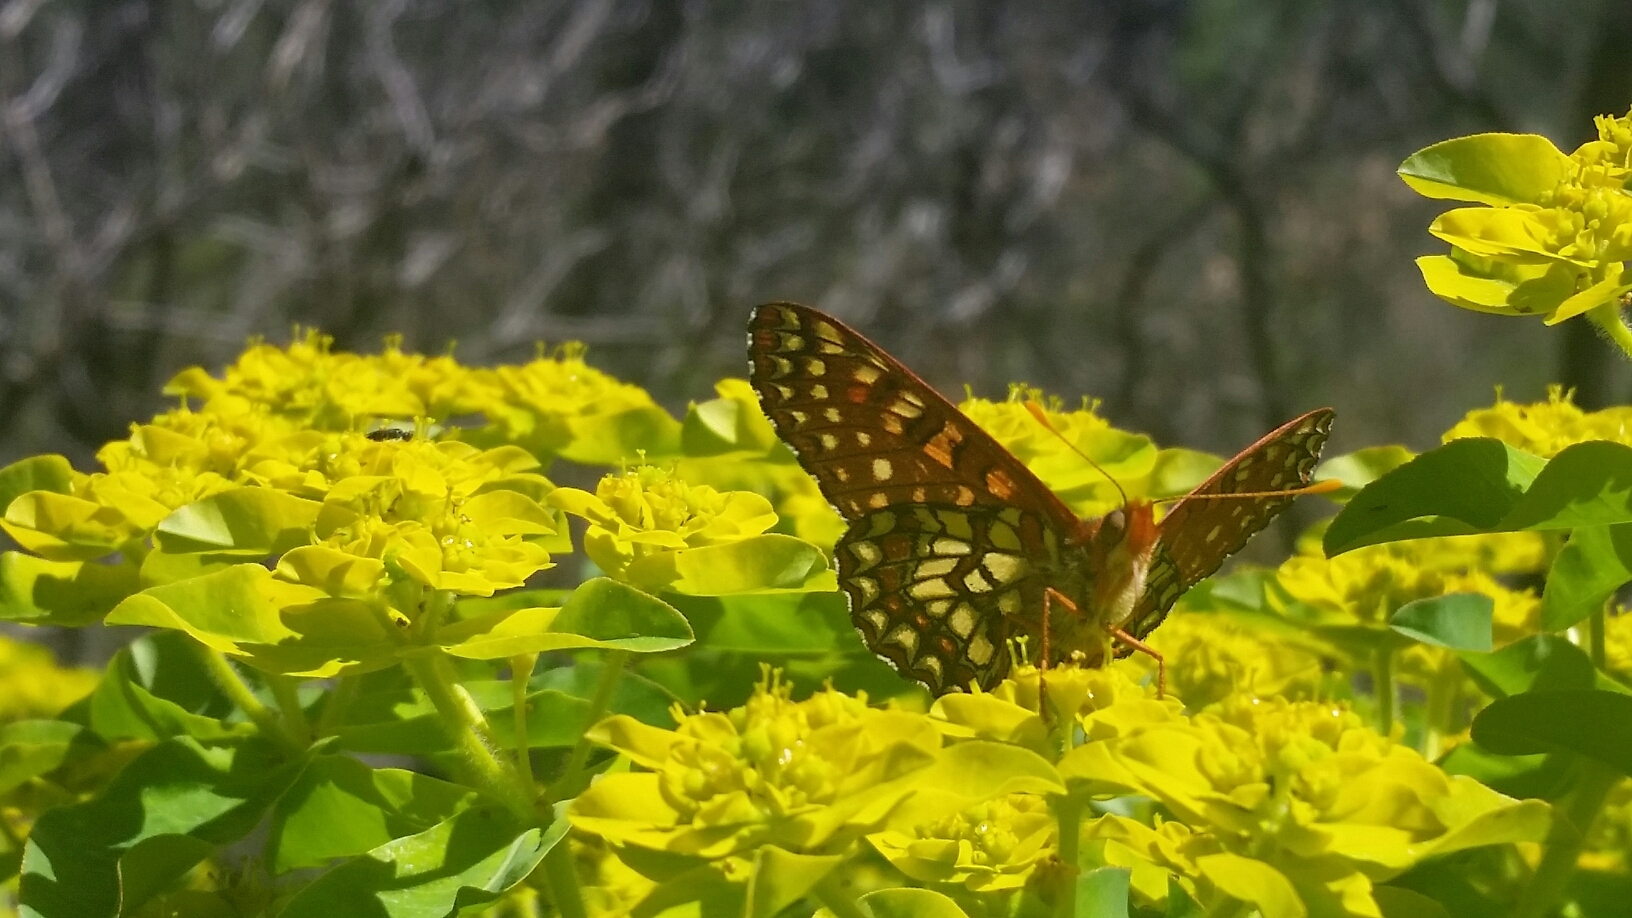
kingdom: Animalia
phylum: Arthropoda
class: Insecta
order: Lepidoptera
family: Nymphalidae
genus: Occidryas
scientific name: Occidryas chalcedona
